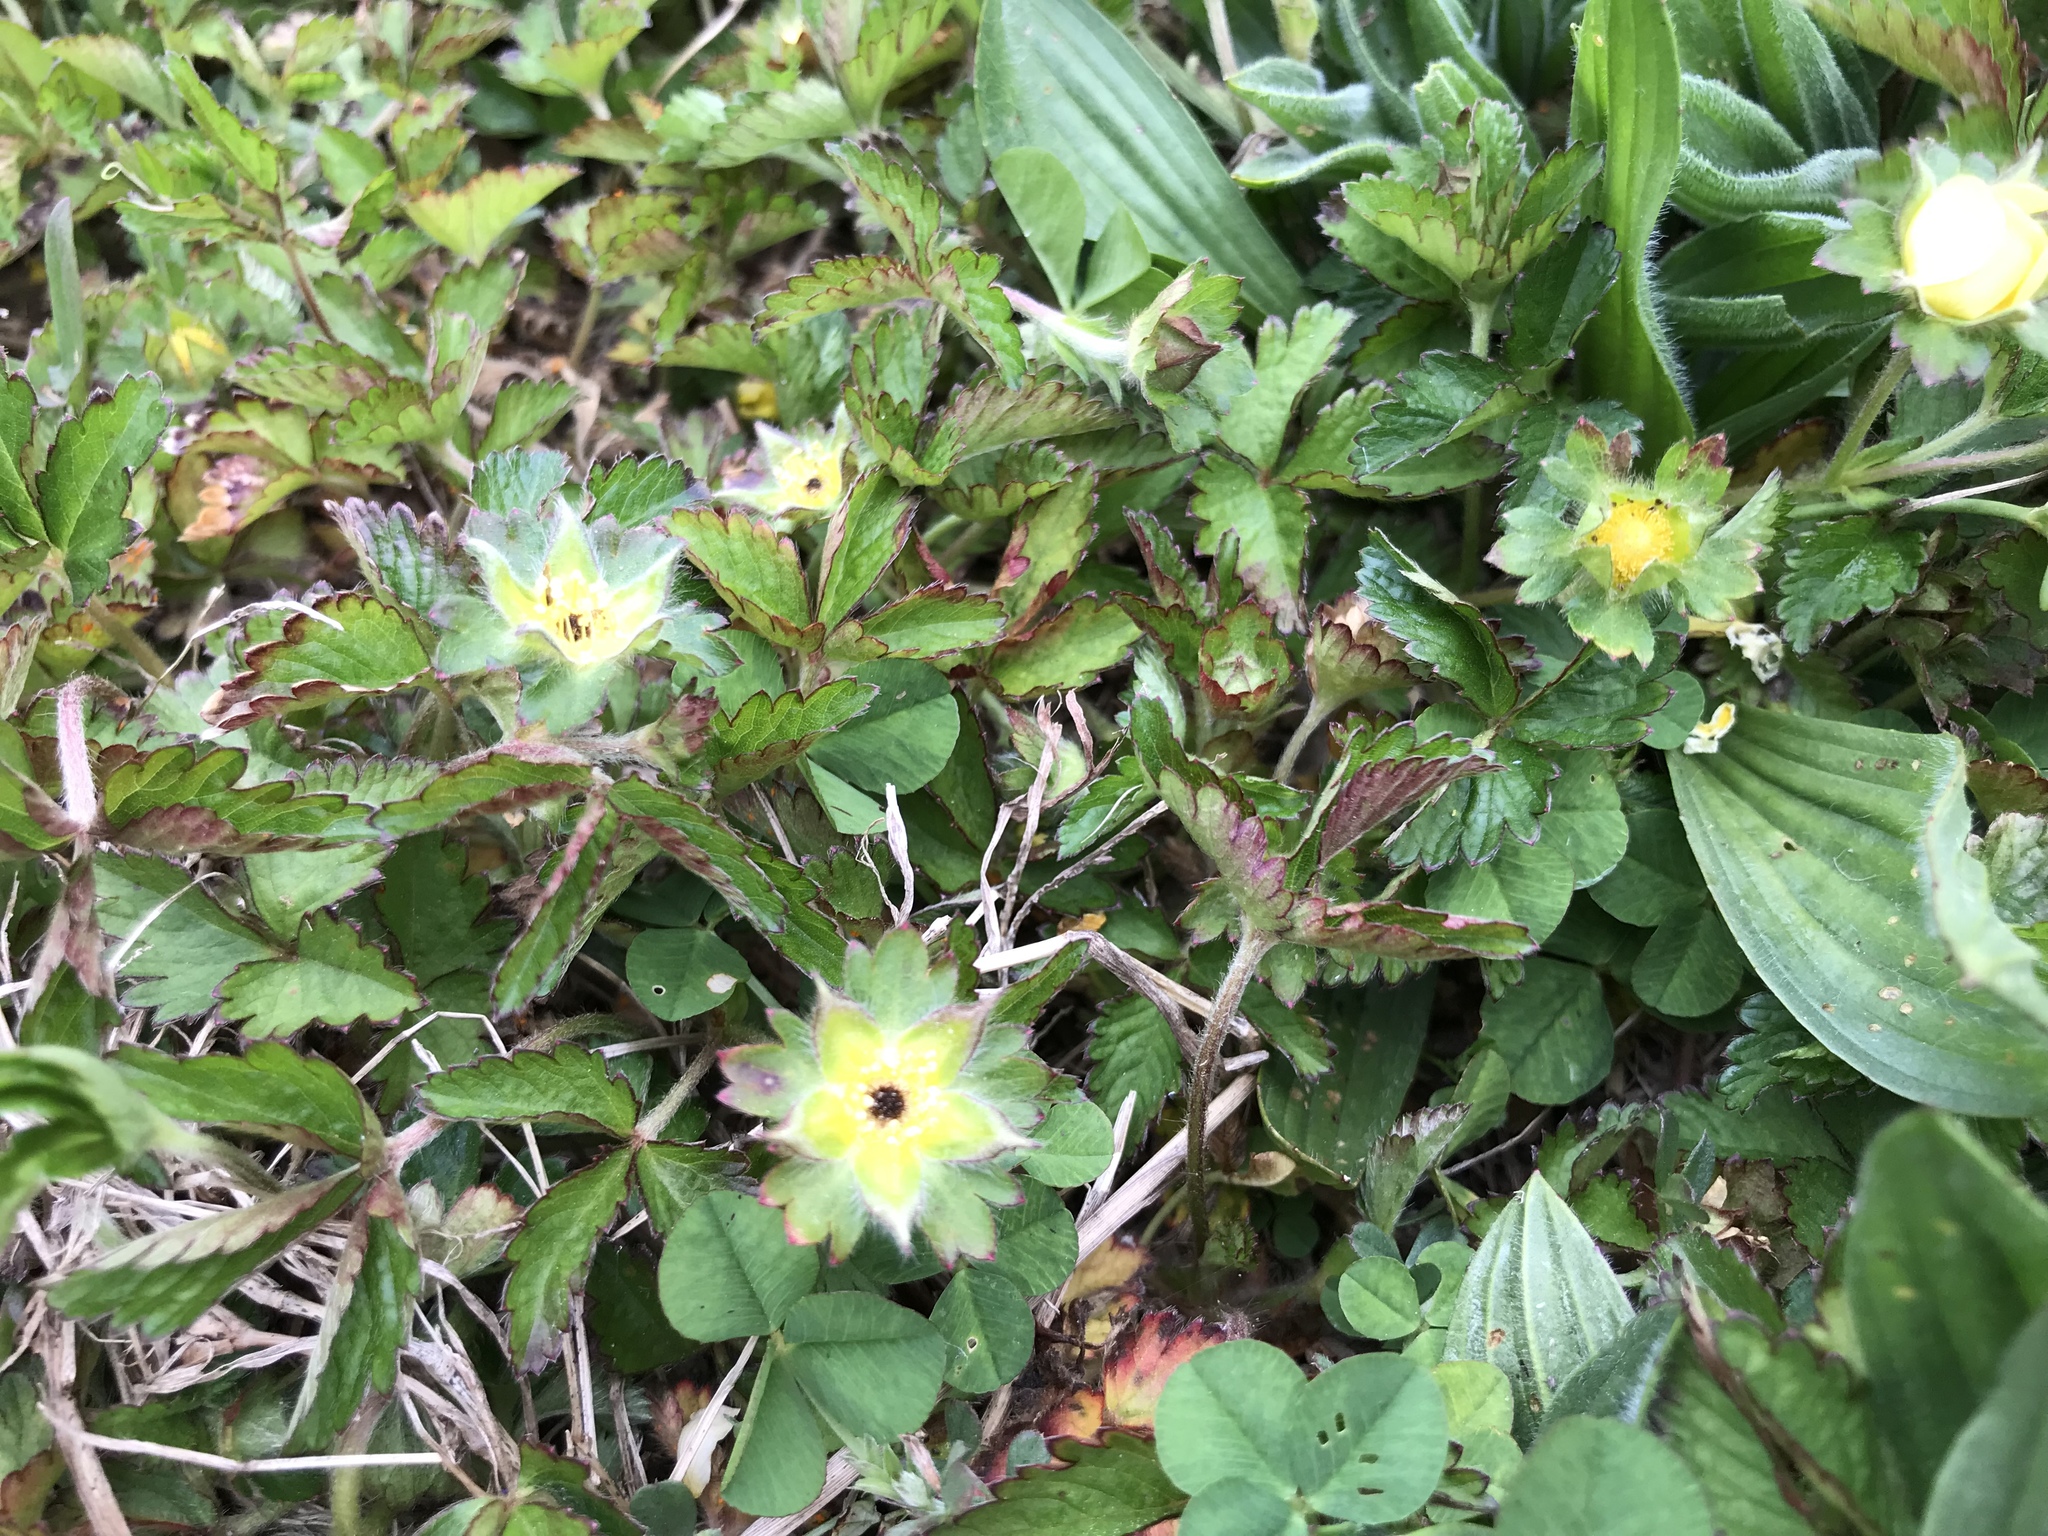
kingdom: Plantae
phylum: Tracheophyta
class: Magnoliopsida
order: Rosales
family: Rosaceae
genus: Potentilla
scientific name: Potentilla indica
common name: Yellow-flowered strawberry
